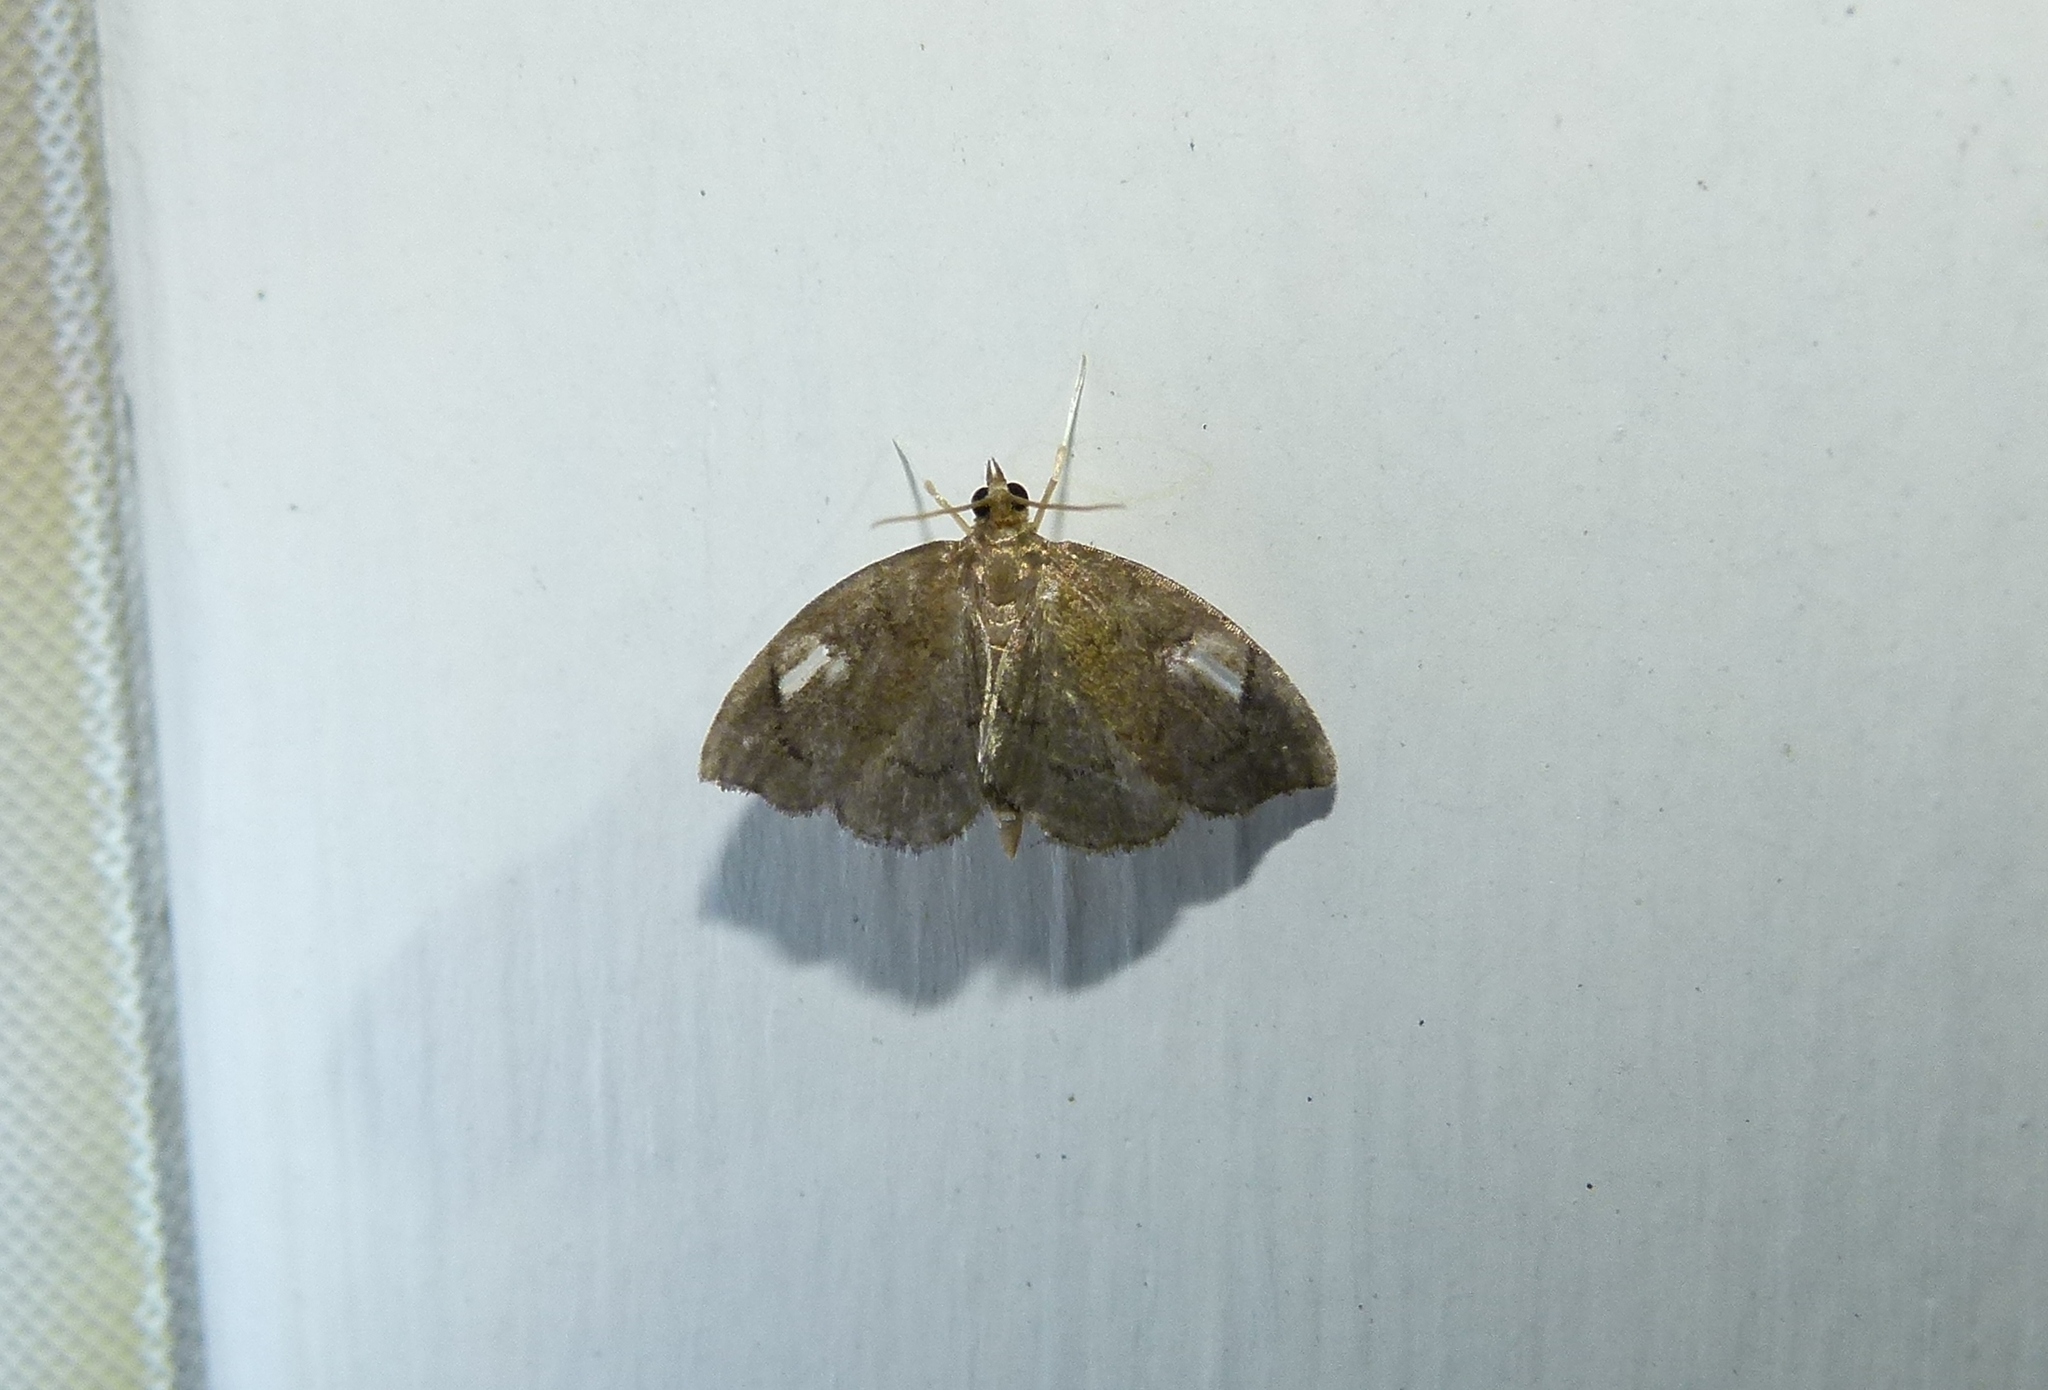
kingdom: Animalia
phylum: Arthropoda
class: Insecta
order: Lepidoptera
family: Crambidae
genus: Perispasta
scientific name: Perispasta caeculalis
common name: Titian peale's moth
